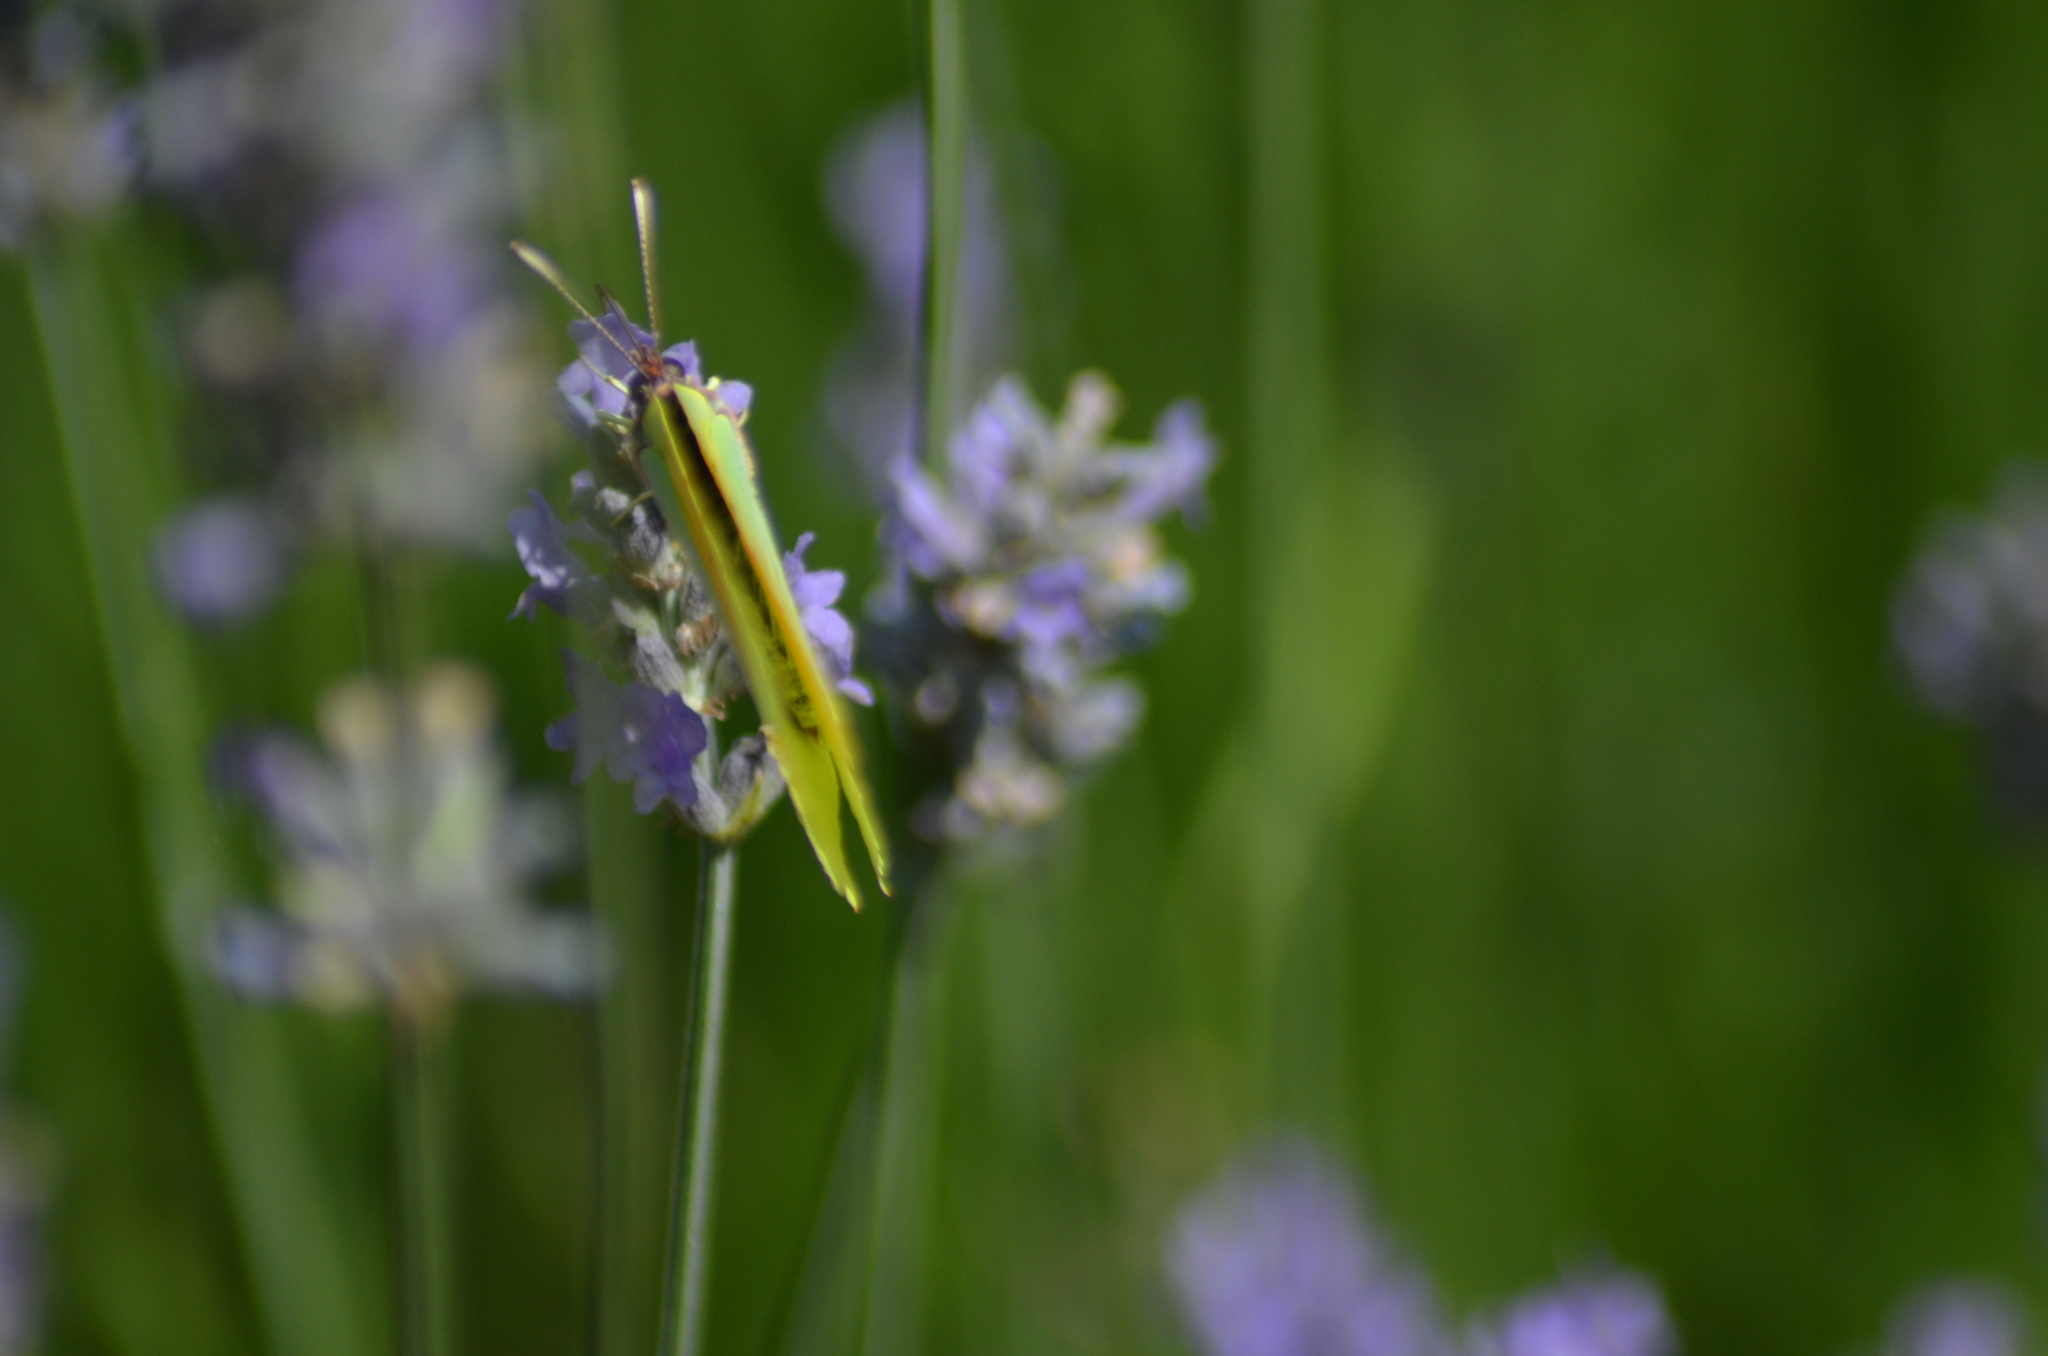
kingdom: Animalia
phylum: Arthropoda
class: Insecta
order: Lepidoptera
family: Pieridae
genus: Gonepteryx
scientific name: Gonepteryx cleopatra
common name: Cleopatra
